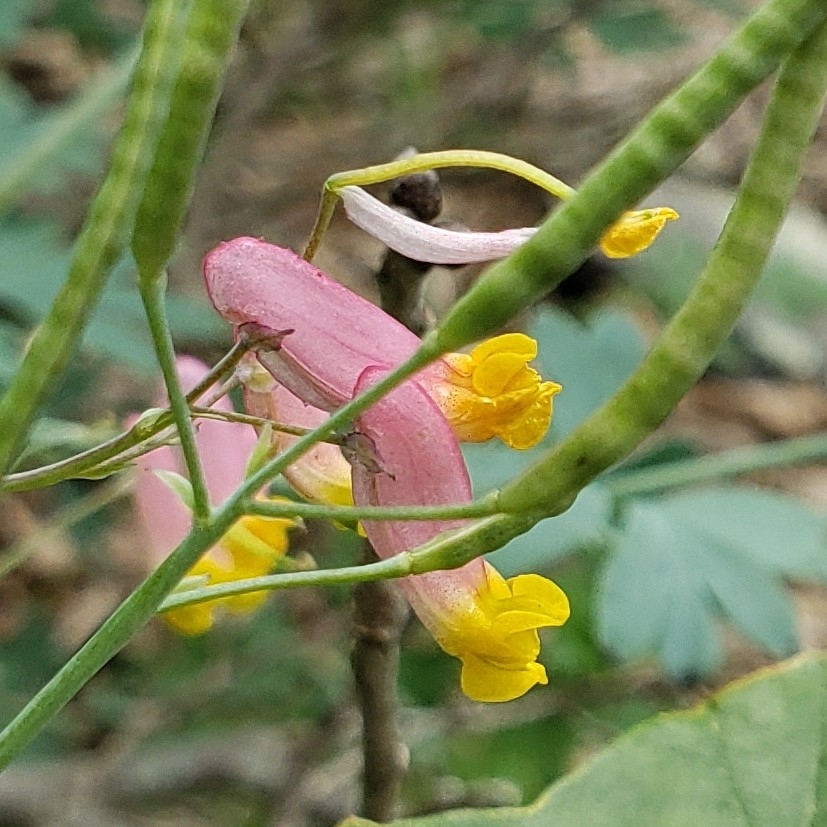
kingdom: Plantae
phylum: Tracheophyta
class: Magnoliopsida
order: Ranunculales
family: Papaveraceae
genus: Capnoides
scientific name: Capnoides sempervirens
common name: Rock harlequin
